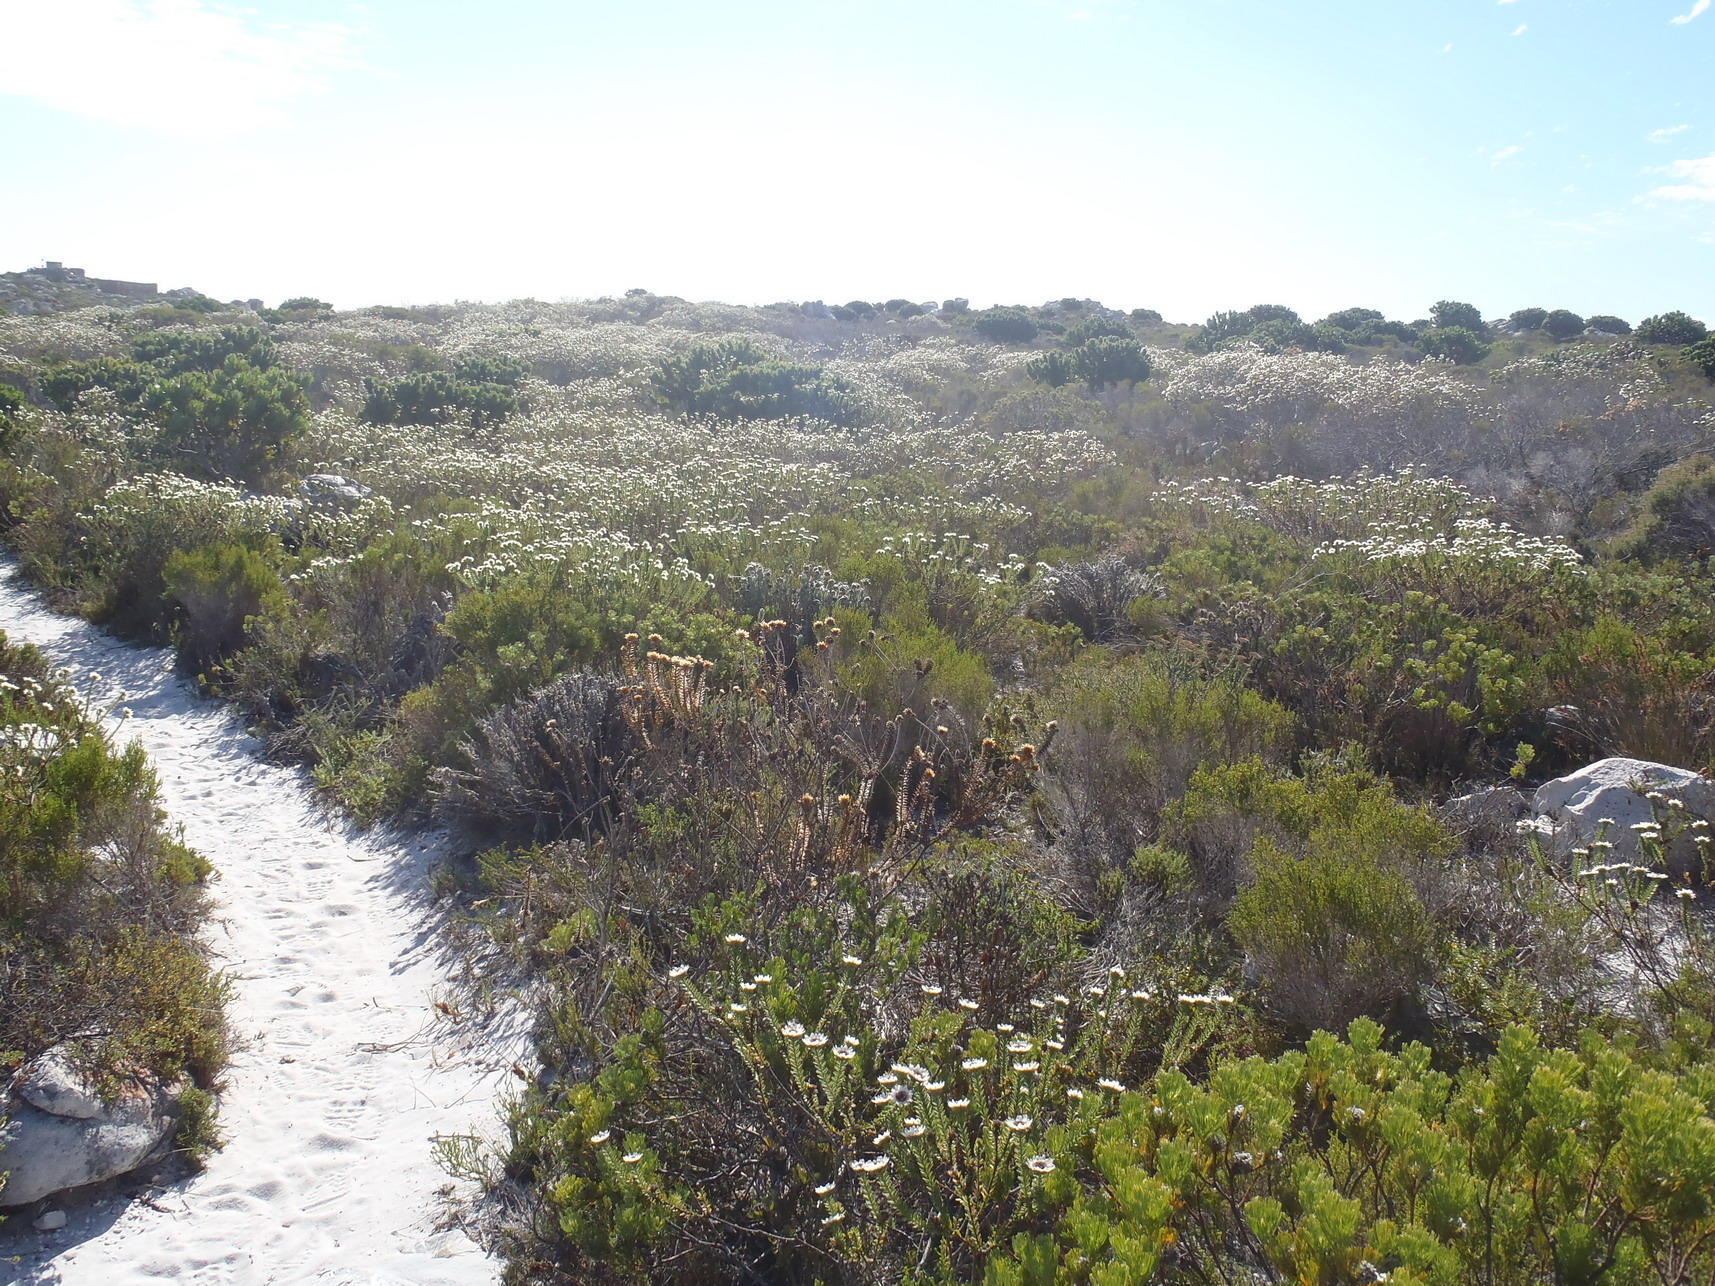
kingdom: Plantae
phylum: Tracheophyta
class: Magnoliopsida
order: Bruniales
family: Bruniaceae
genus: Staavia
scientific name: Staavia dodii
